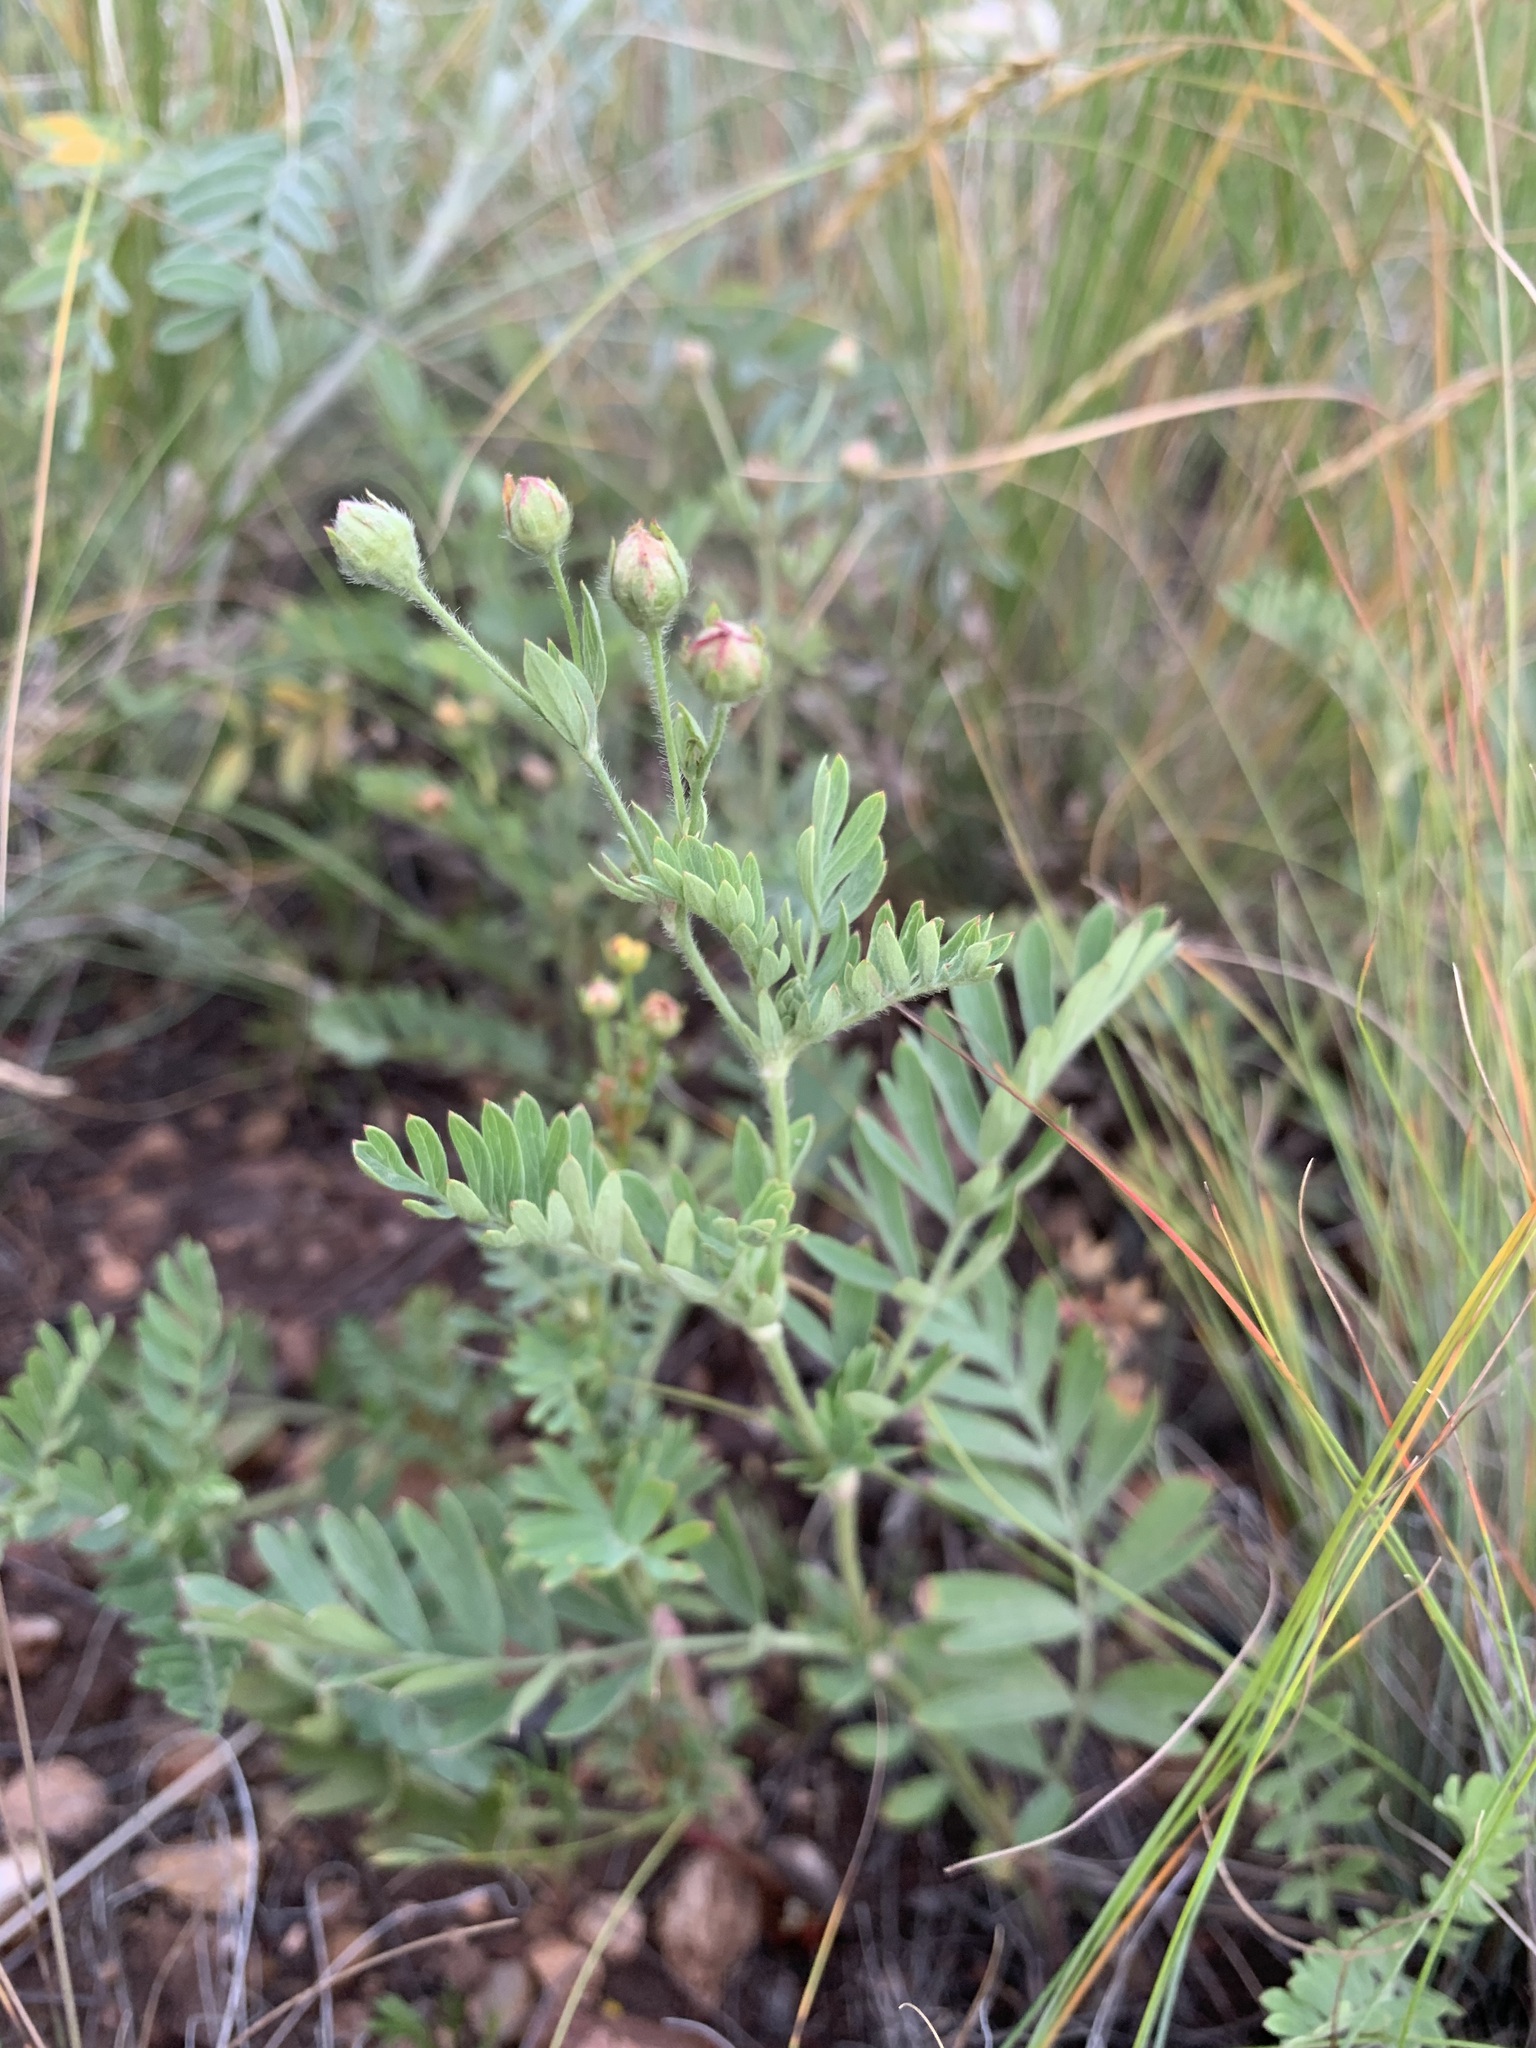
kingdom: Plantae
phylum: Tracheophyta
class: Magnoliopsida
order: Rosales
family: Rosaceae
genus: Sibbaldianthe
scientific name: Sibbaldianthe bifurca
